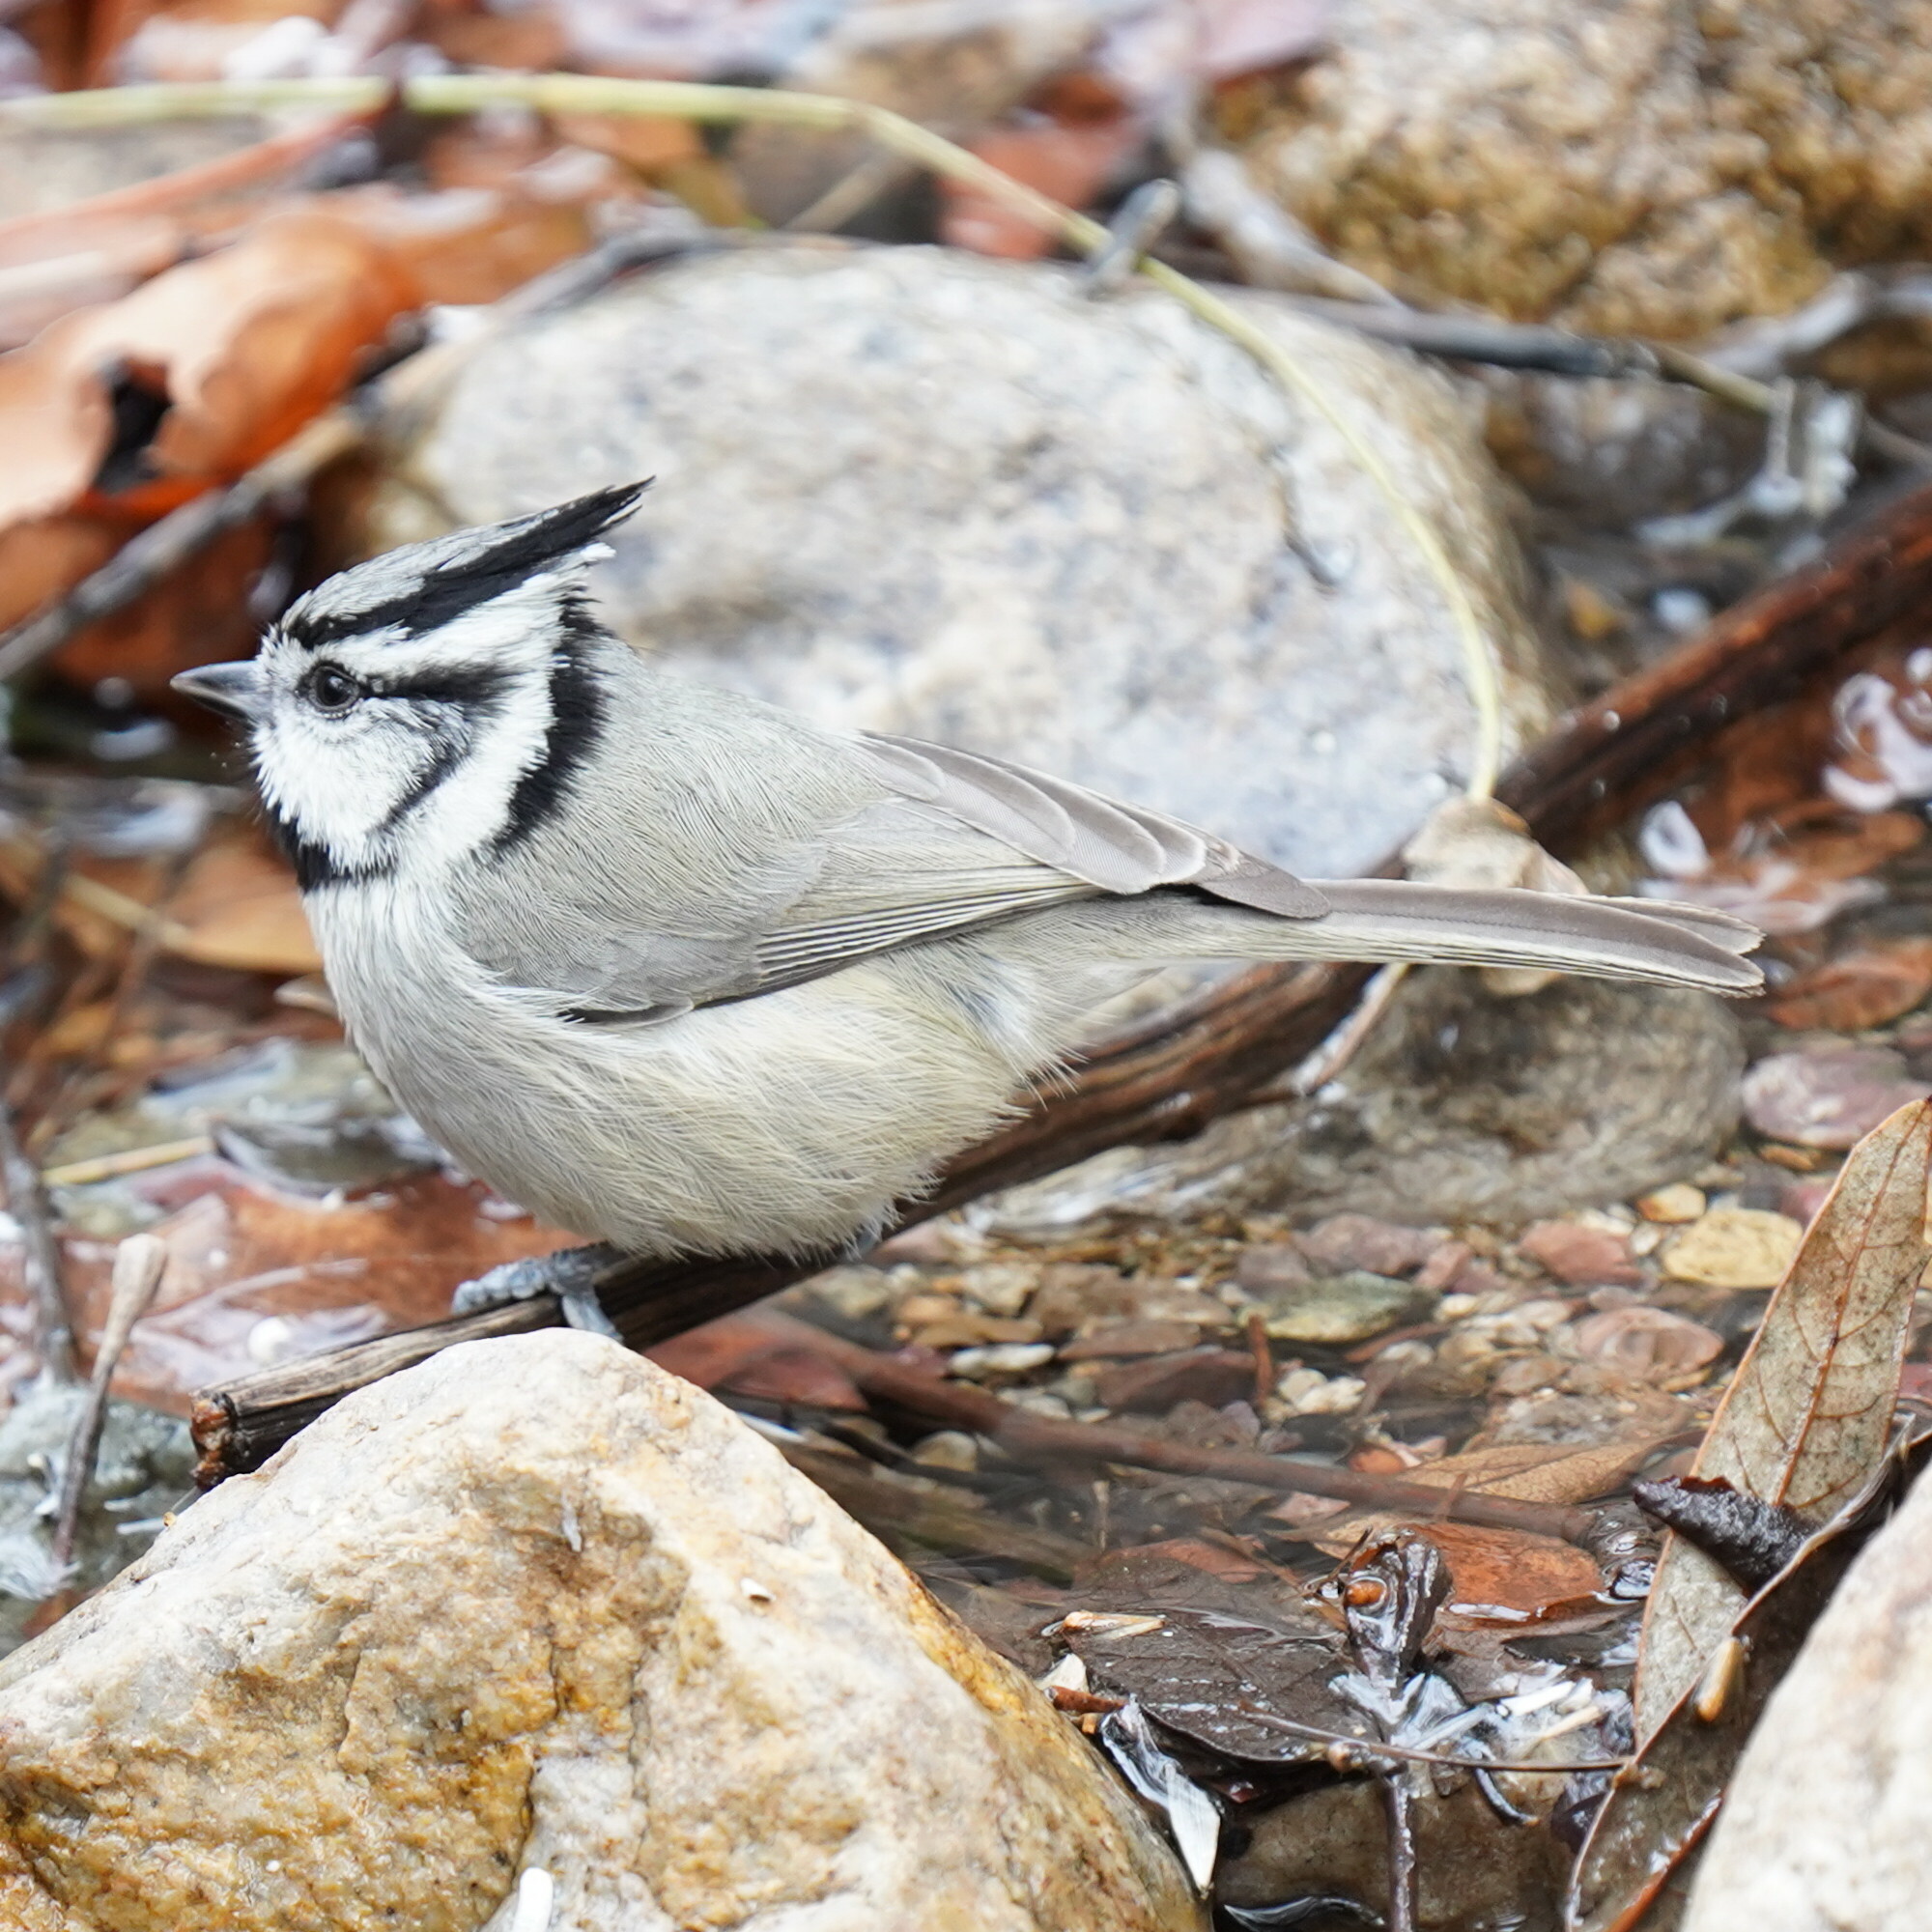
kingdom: Animalia
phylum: Chordata
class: Aves
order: Passeriformes
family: Paridae
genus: Baeolophus
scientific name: Baeolophus wollweberi
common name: Bridled titmouse
